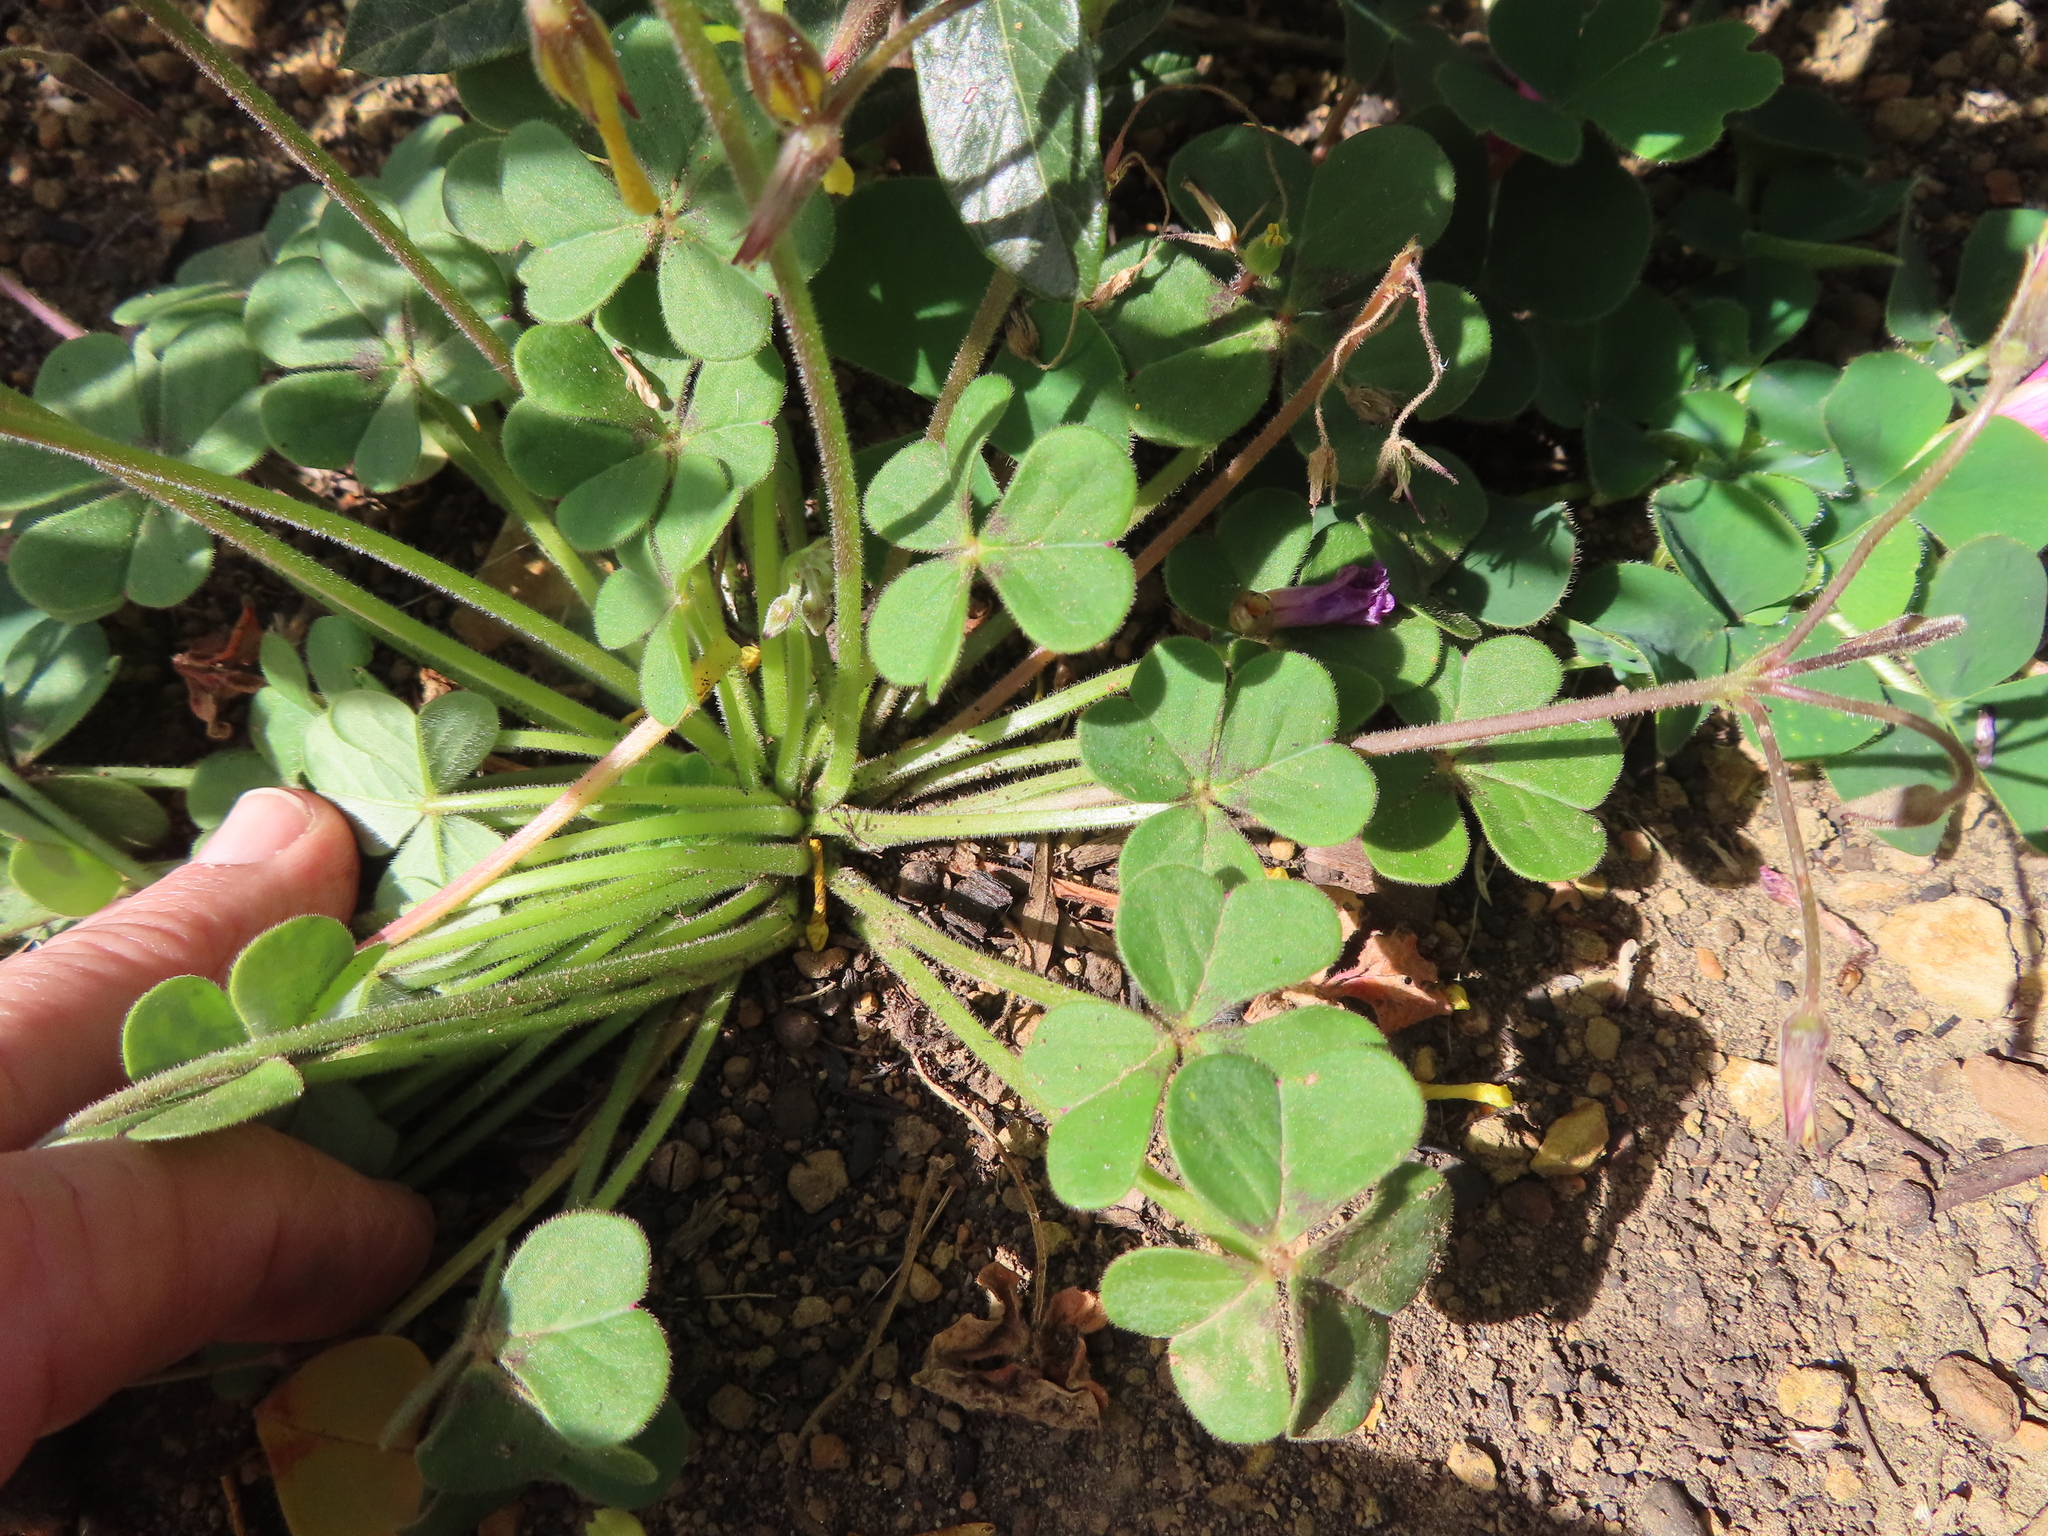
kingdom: Plantae
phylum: Tracheophyta
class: Magnoliopsida
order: Oxalidales
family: Oxalidaceae
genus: Oxalis
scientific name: Oxalis pes-caprae
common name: Bermuda-buttercup
